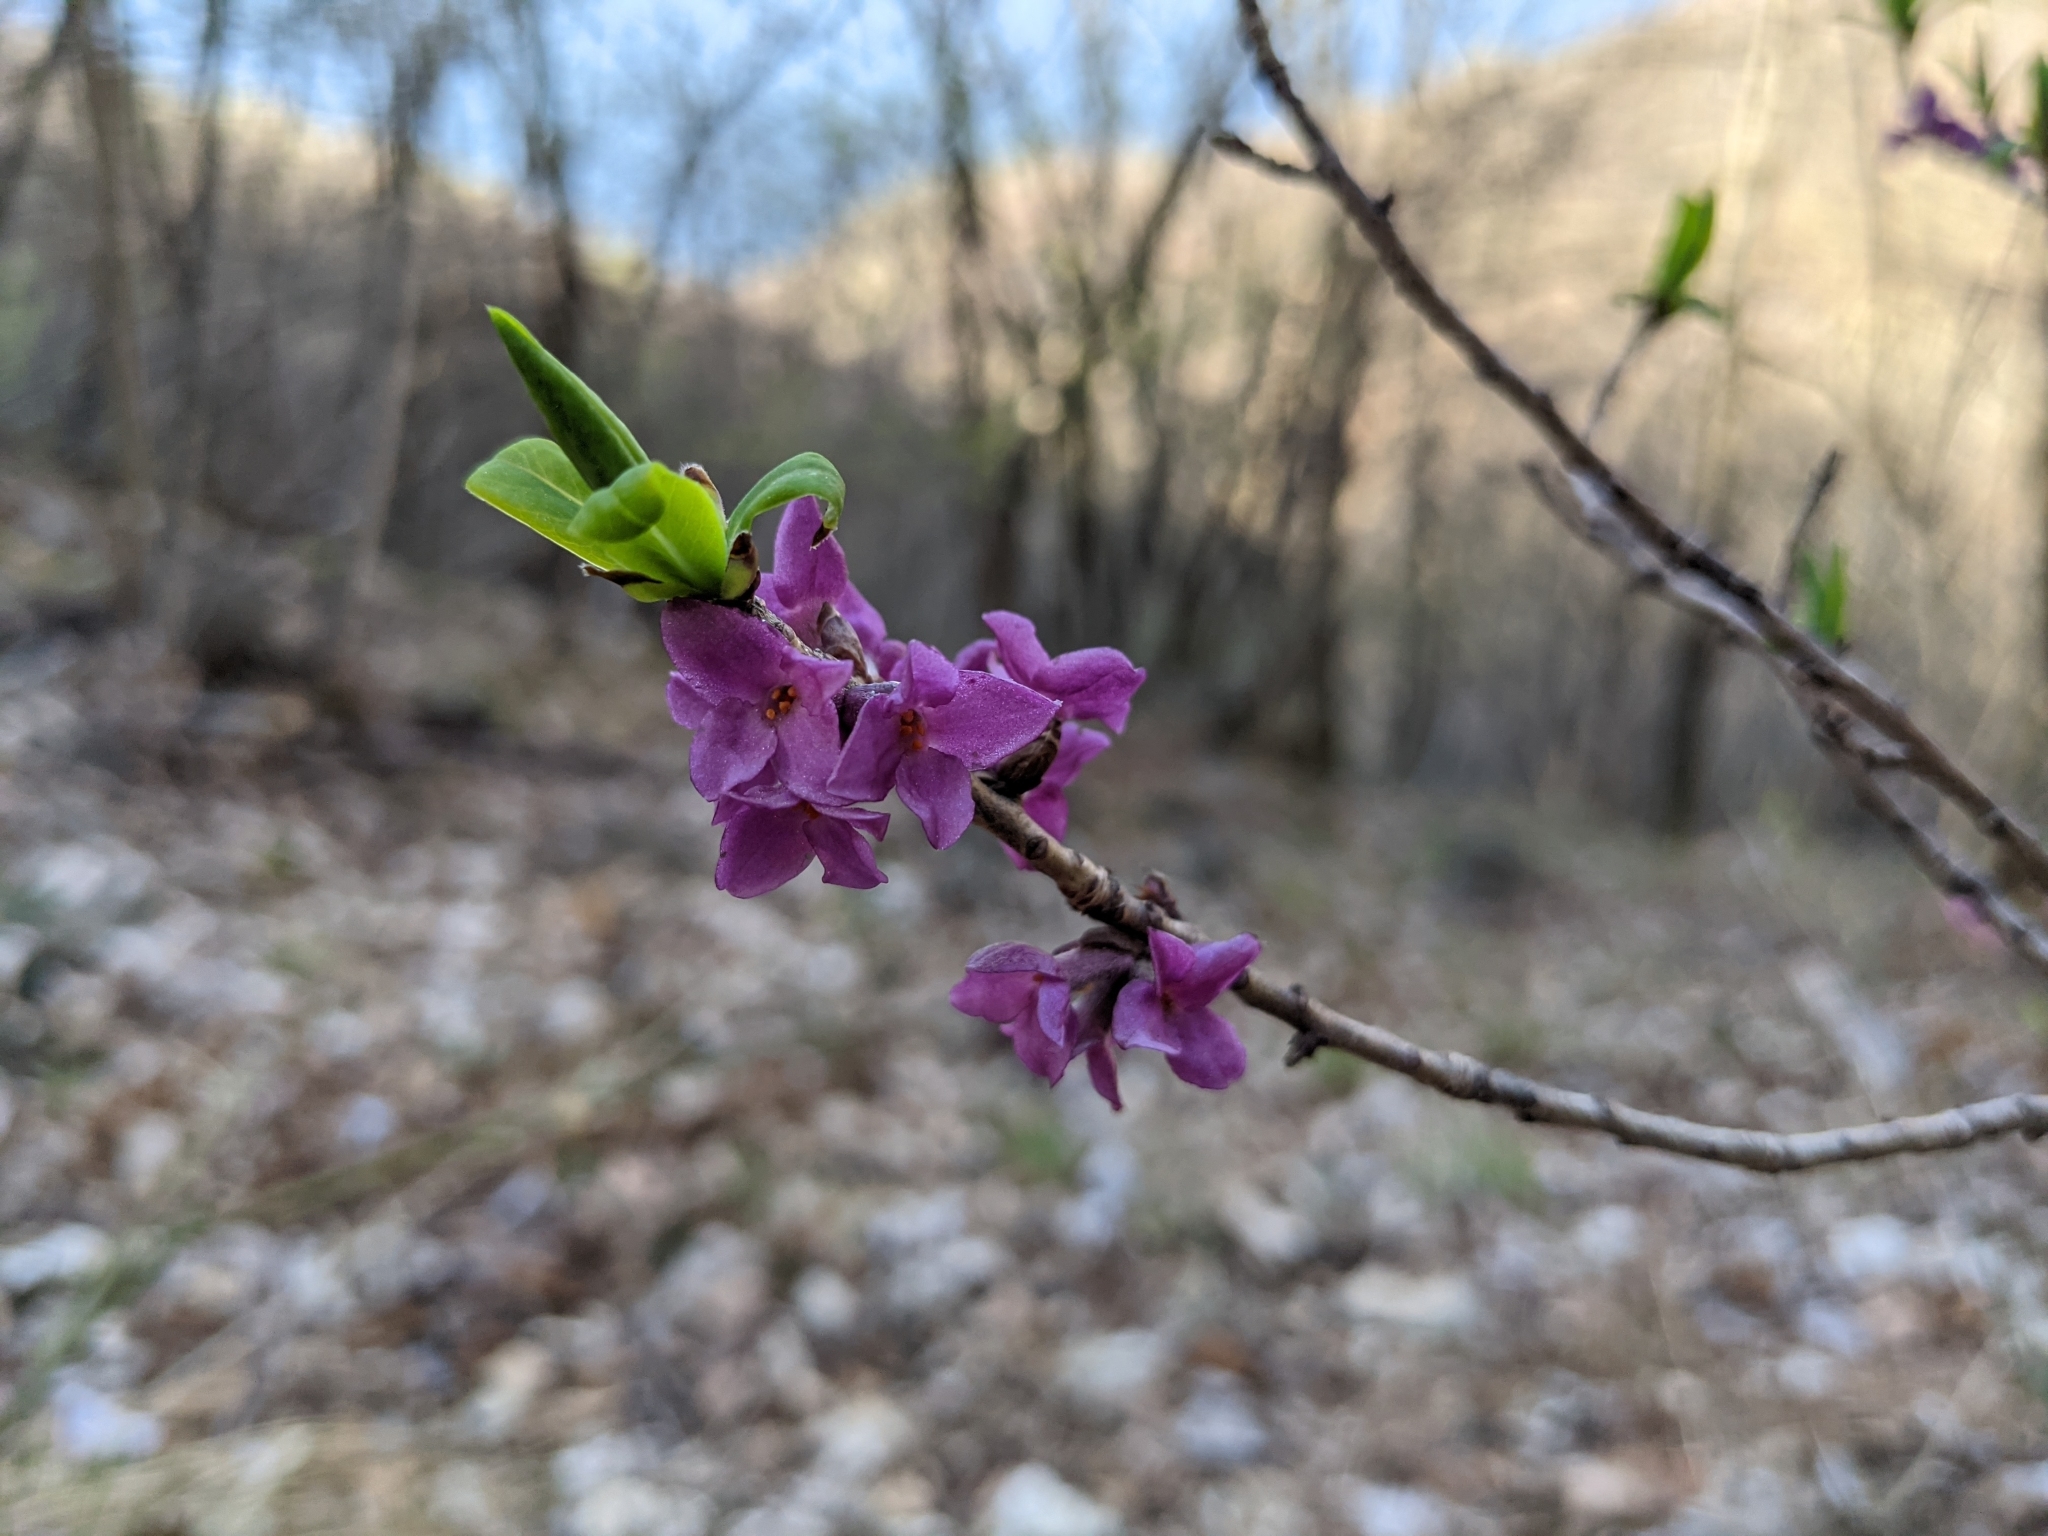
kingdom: Plantae
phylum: Tracheophyta
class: Magnoliopsida
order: Malvales
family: Thymelaeaceae
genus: Daphne
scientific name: Daphne mezereum
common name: Mezereon
